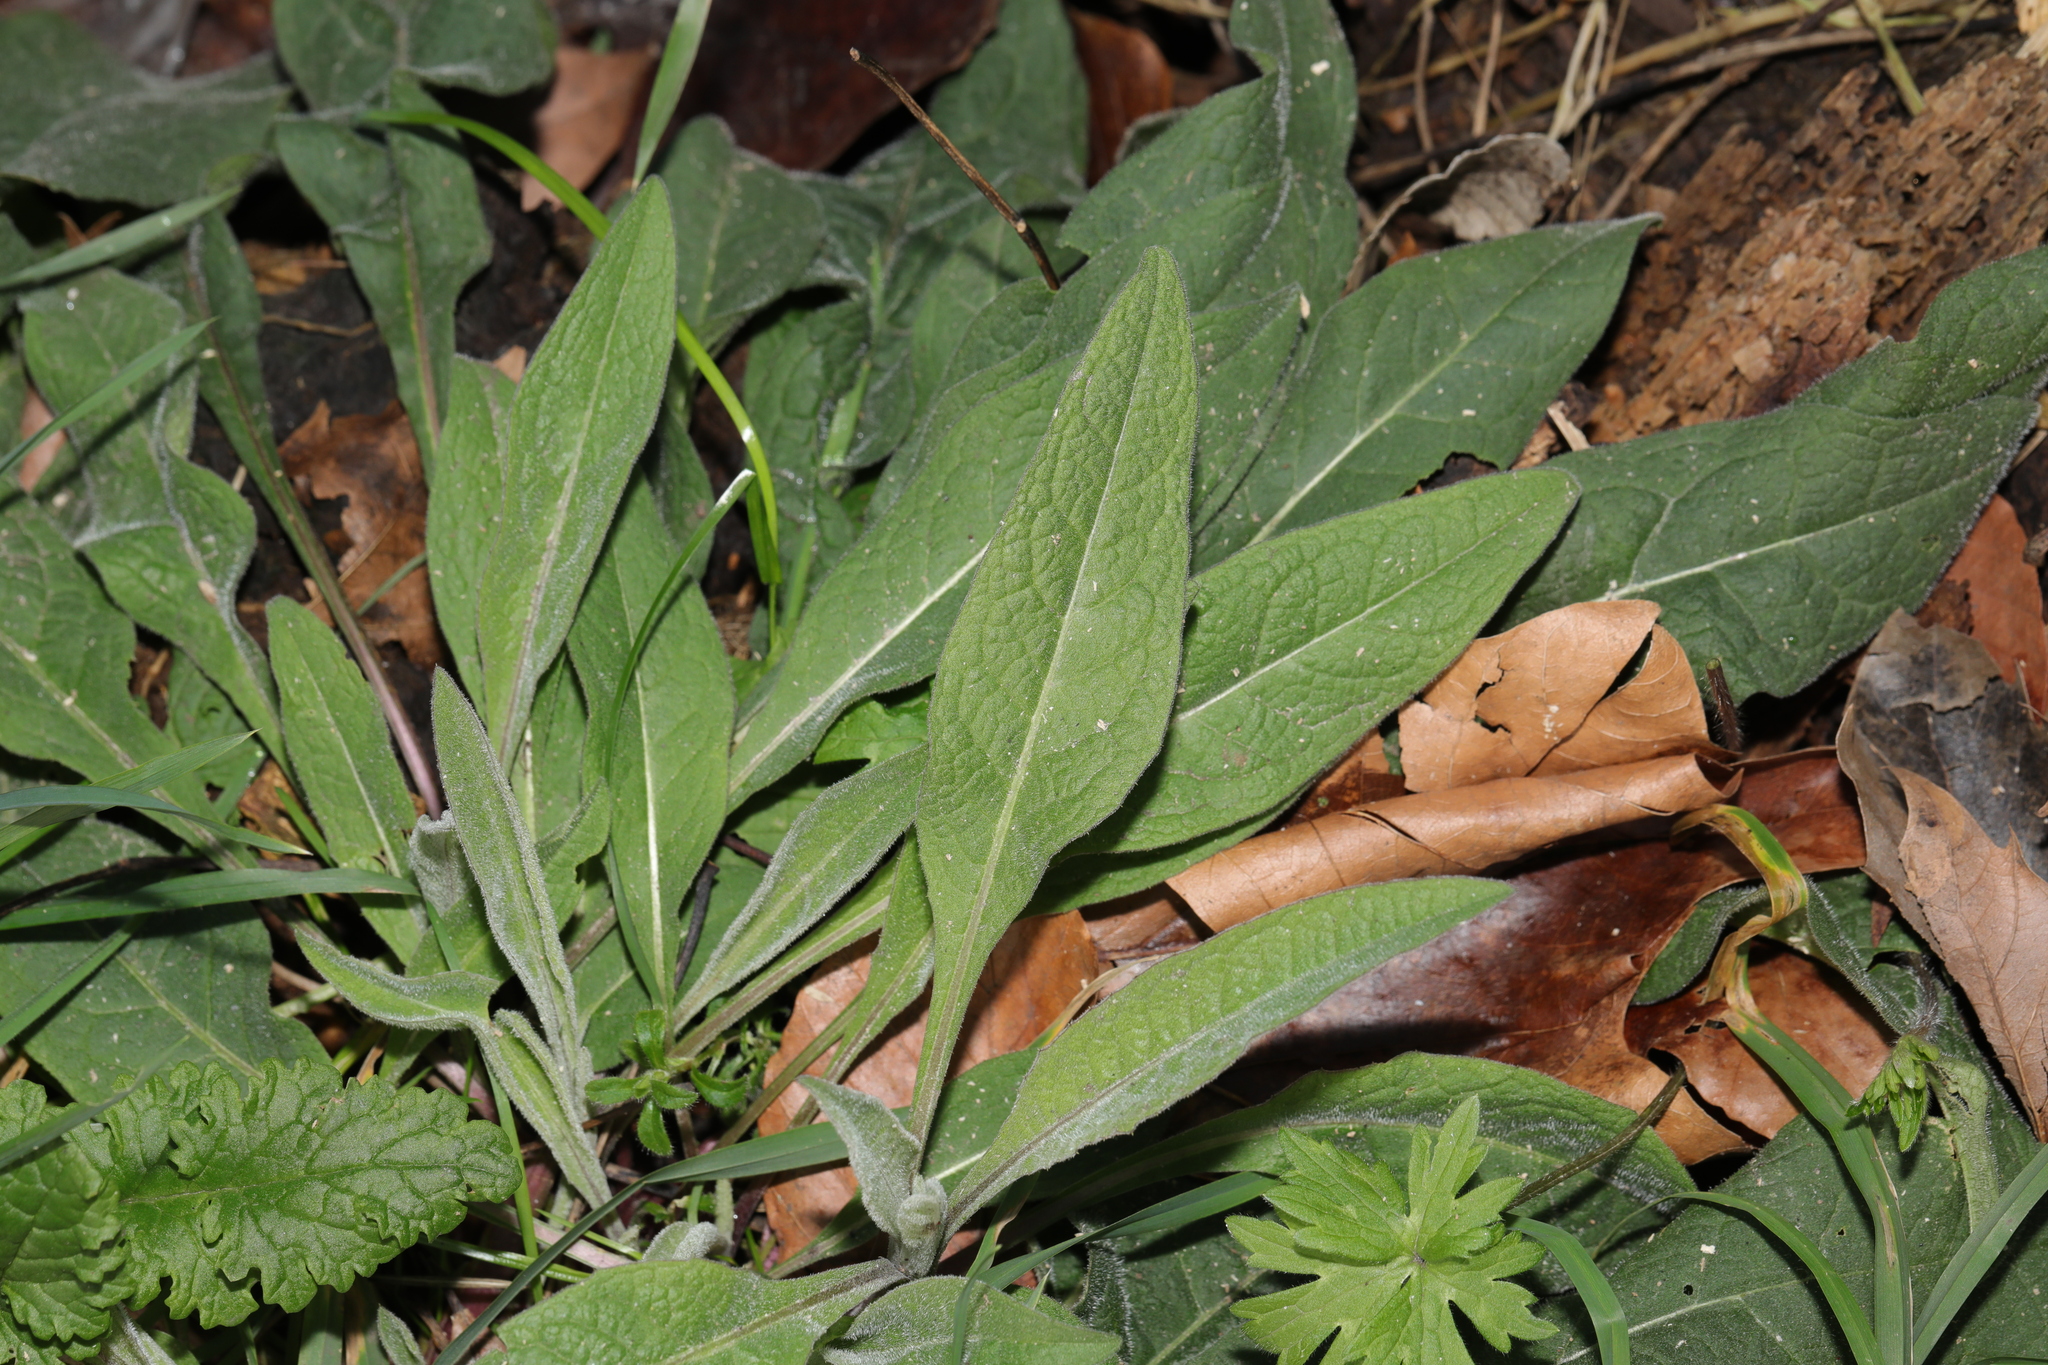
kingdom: Plantae
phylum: Tracheophyta
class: Magnoliopsida
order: Asterales
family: Asteraceae
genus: Centaurea
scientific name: Centaurea nigra
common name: Lesser knapweed
